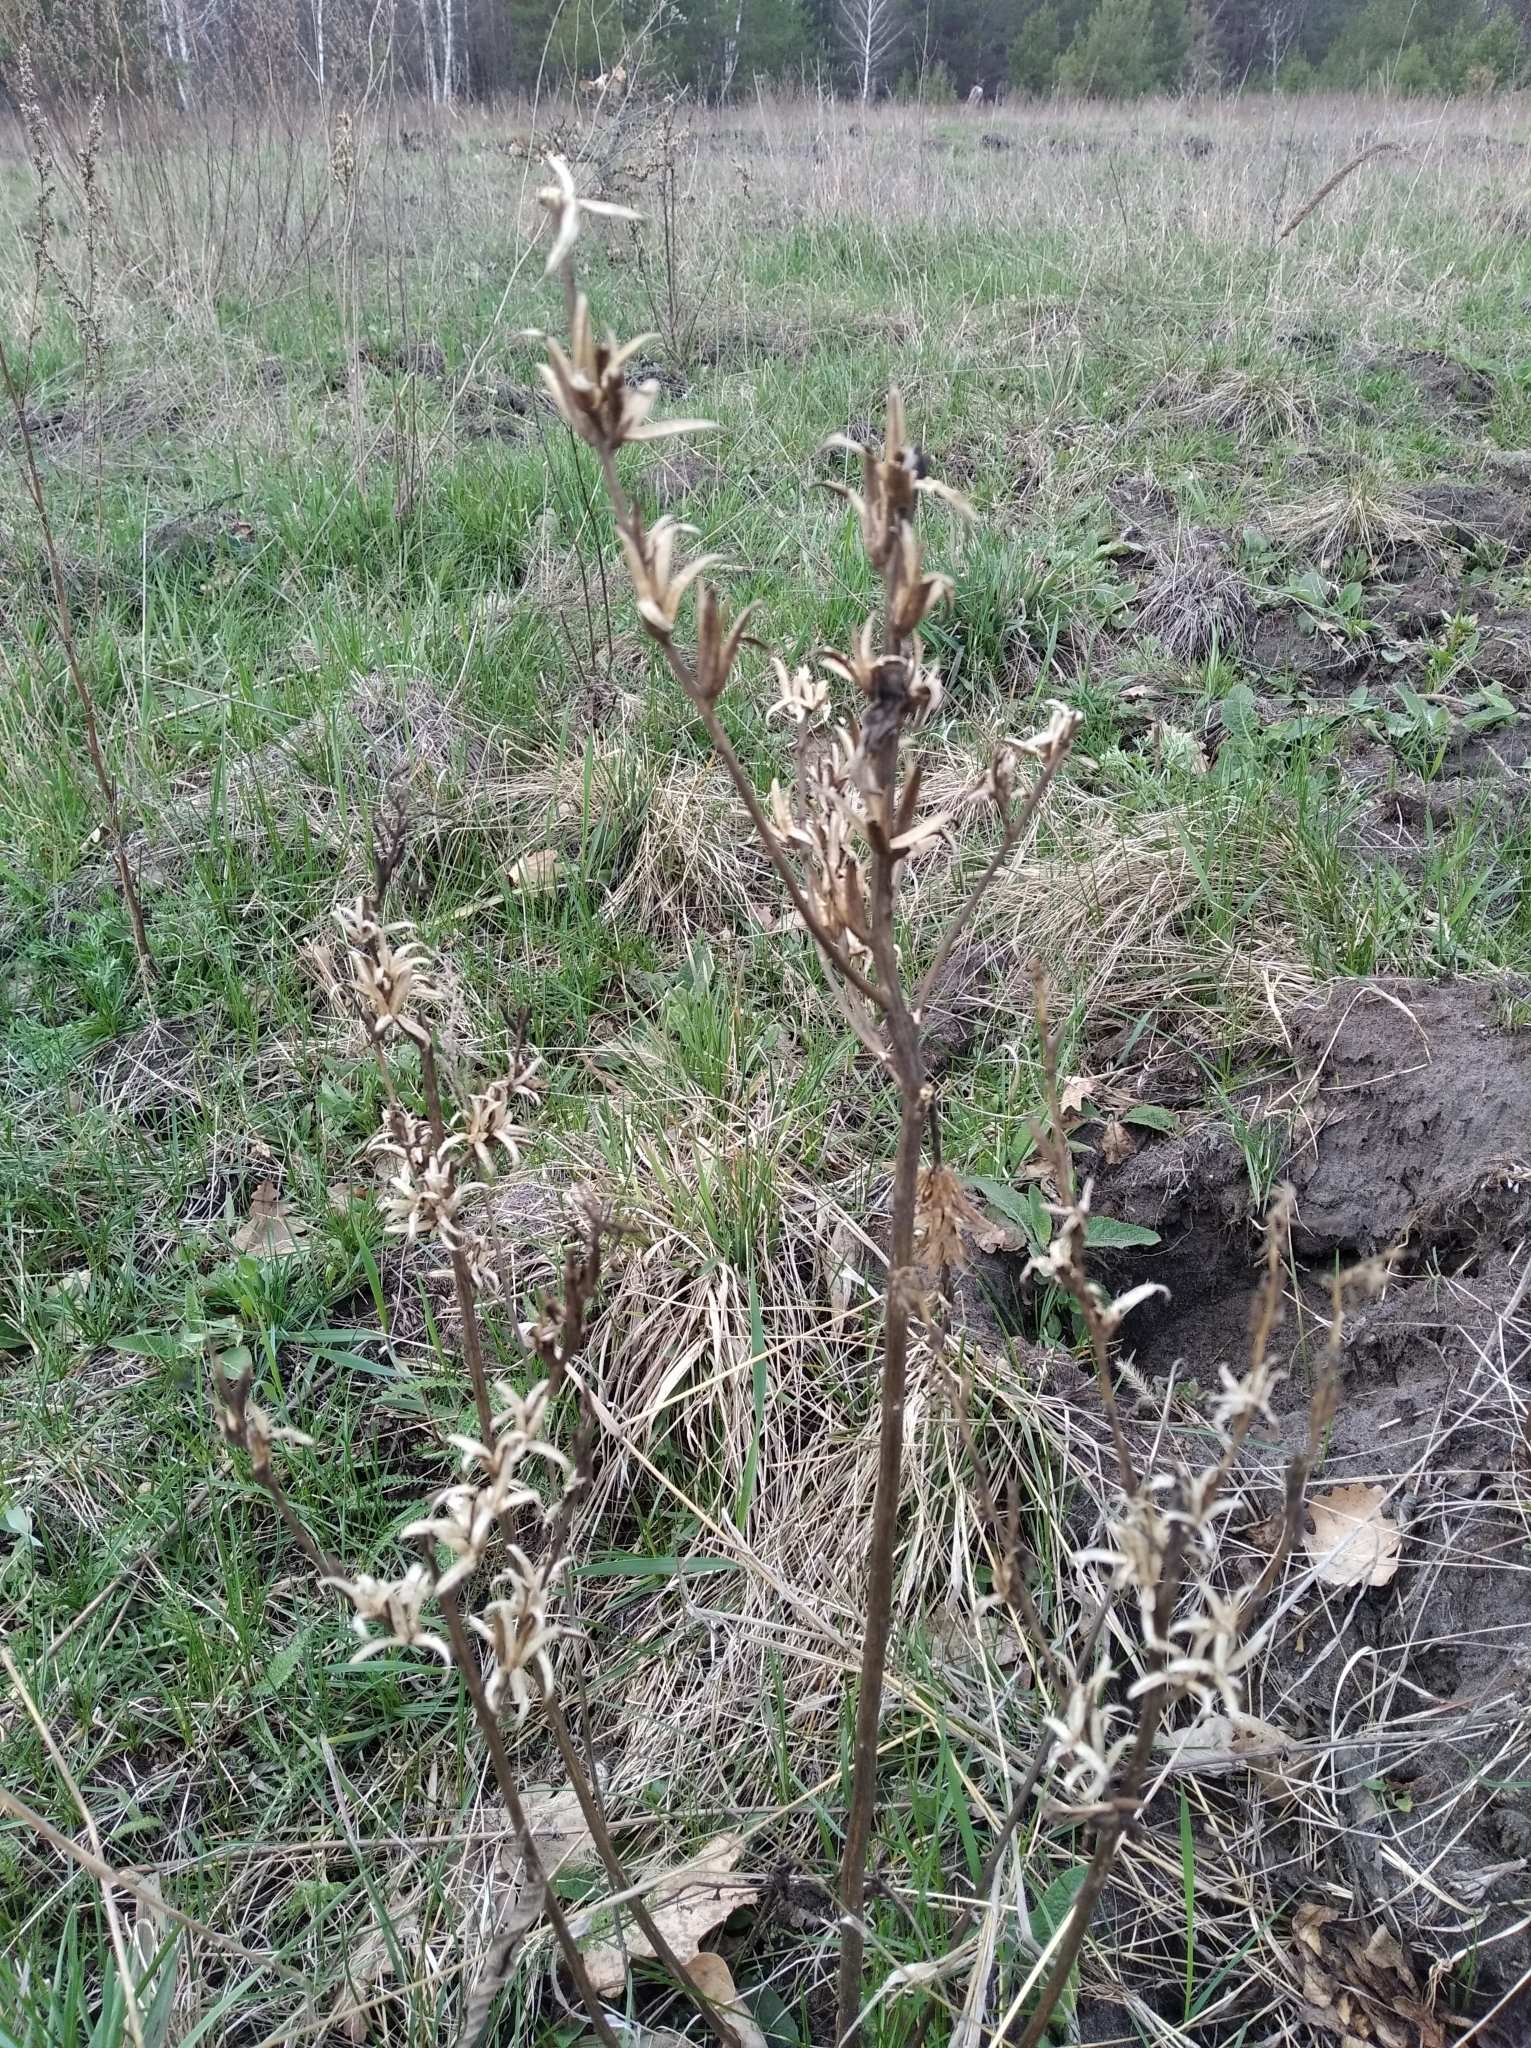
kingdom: Plantae
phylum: Tracheophyta
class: Magnoliopsida
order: Myrtales
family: Onagraceae
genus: Oenothera
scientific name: Oenothera biennis
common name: Common evening-primrose
